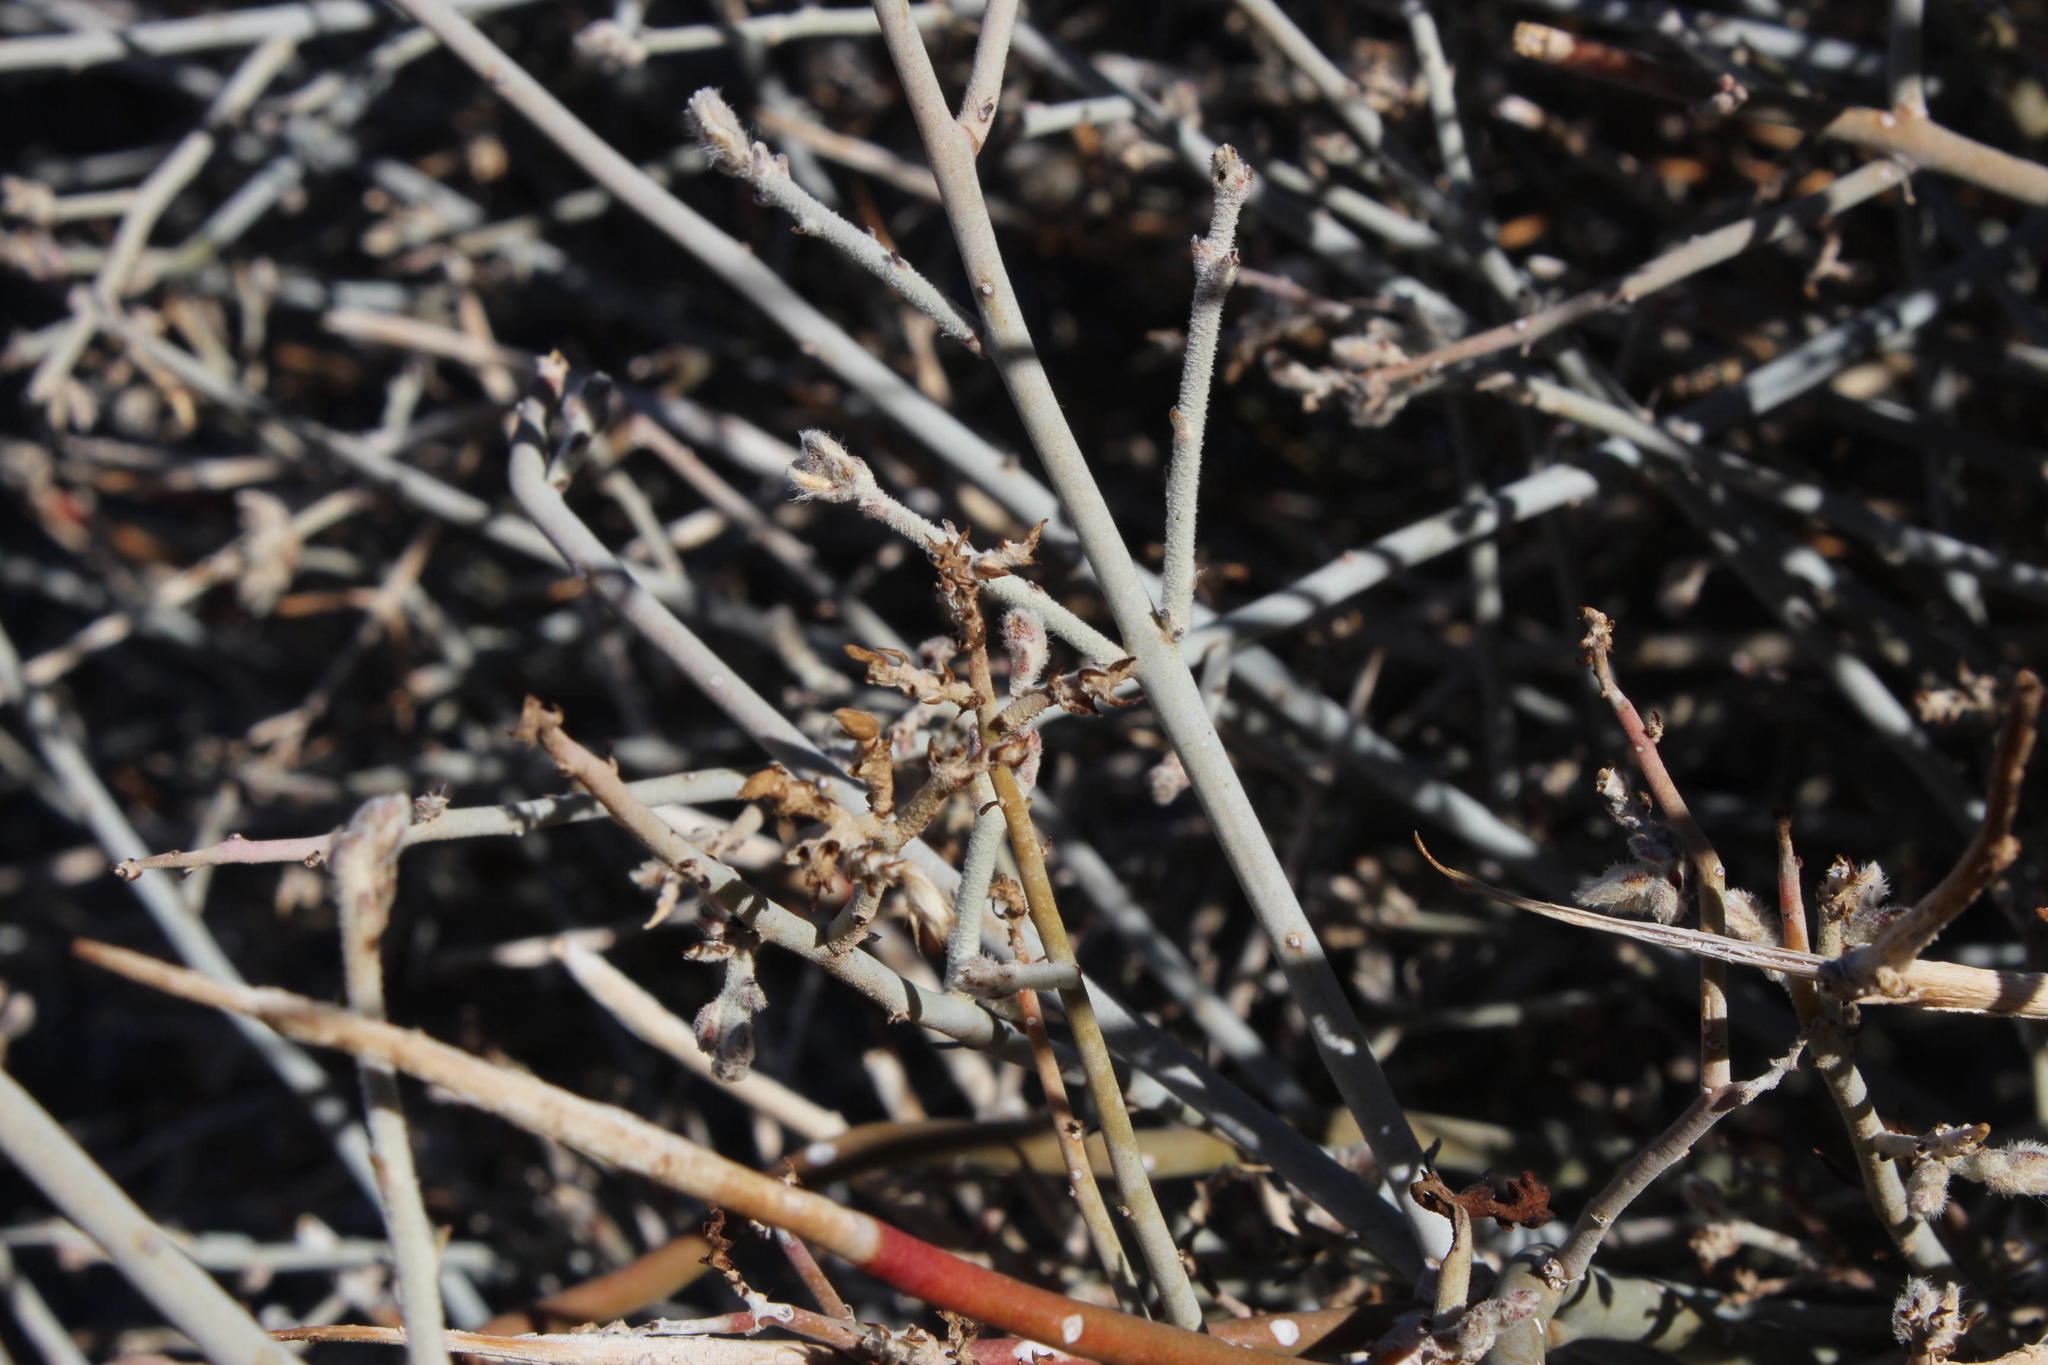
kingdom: Plantae
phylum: Tracheophyta
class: Magnoliopsida
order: Caryophyllales
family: Amaranthaceae
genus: Calicorema
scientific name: Calicorema capitata
